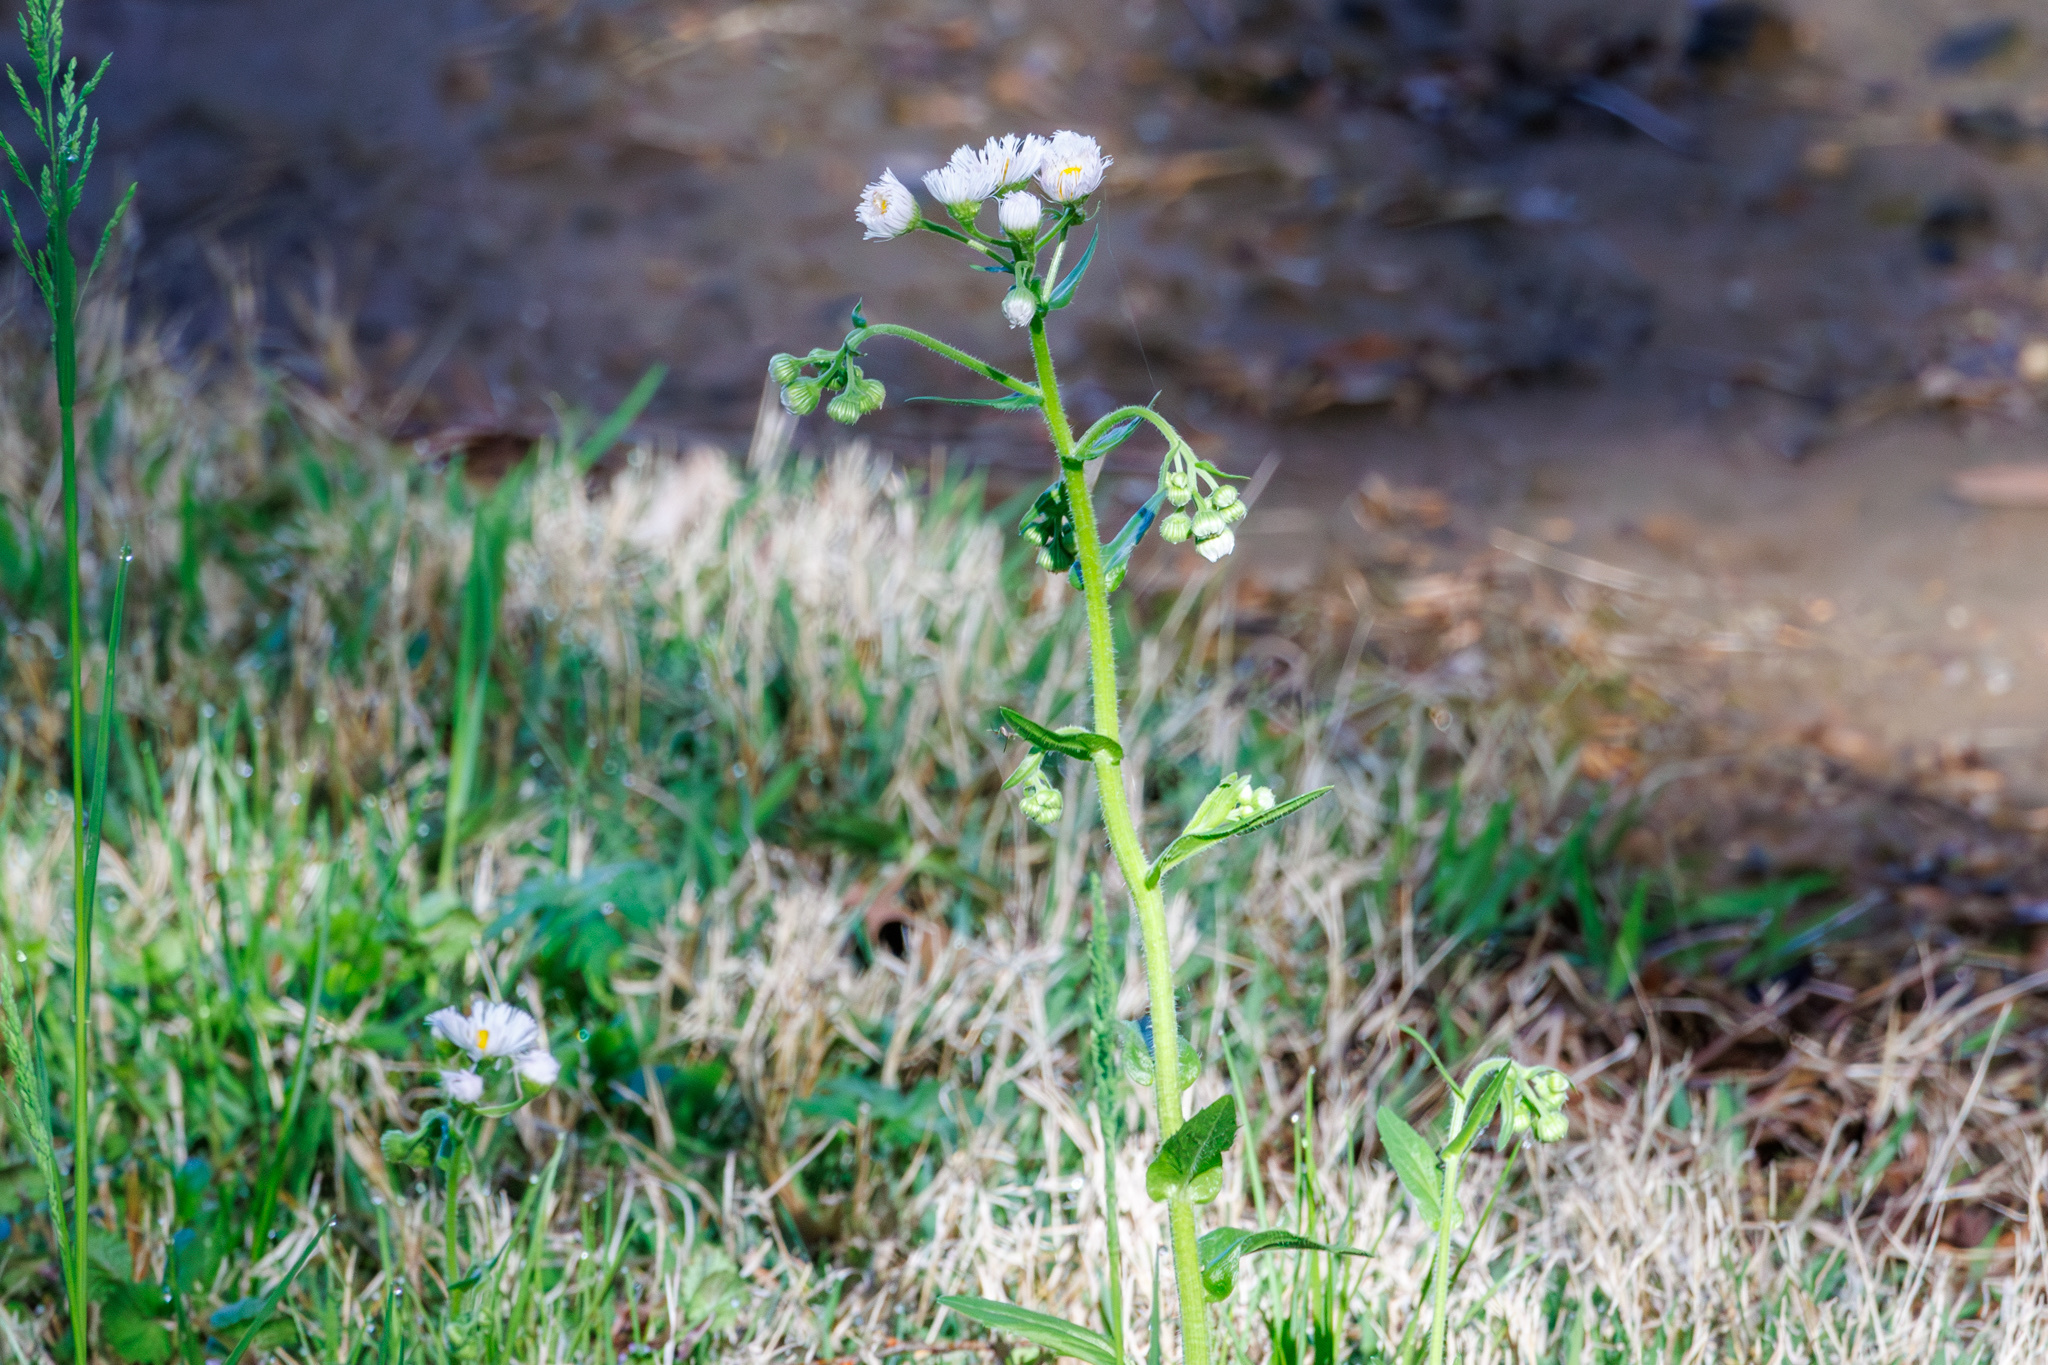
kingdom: Plantae
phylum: Tracheophyta
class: Magnoliopsida
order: Asterales
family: Asteraceae
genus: Erigeron
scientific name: Erigeron philadelphicus
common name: Robin's-plantain
